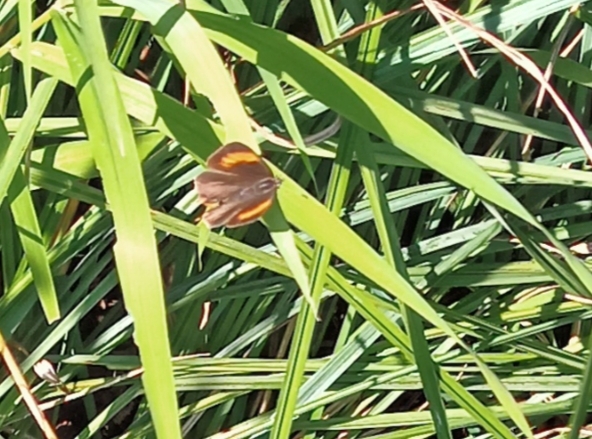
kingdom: Animalia
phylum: Arthropoda
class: Insecta
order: Lepidoptera
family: Lycaenidae
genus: Thecla
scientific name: Thecla betulae
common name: Brown hairstreak
